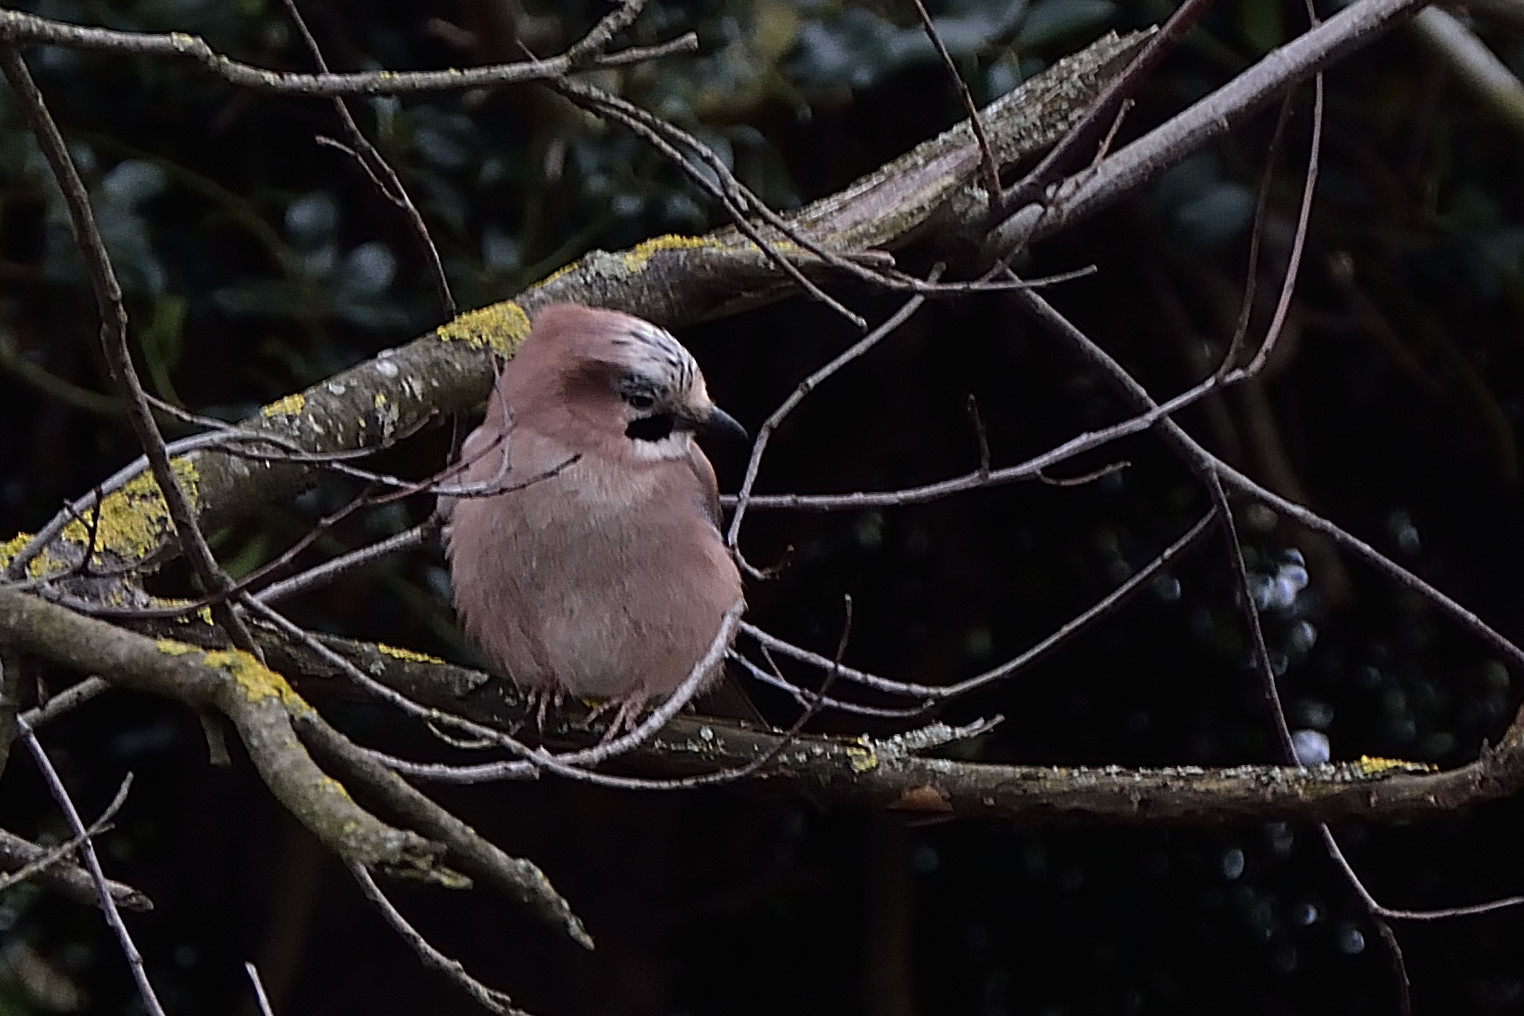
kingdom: Animalia
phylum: Chordata
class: Aves
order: Passeriformes
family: Corvidae
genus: Garrulus
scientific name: Garrulus glandarius
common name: Eurasian jay
